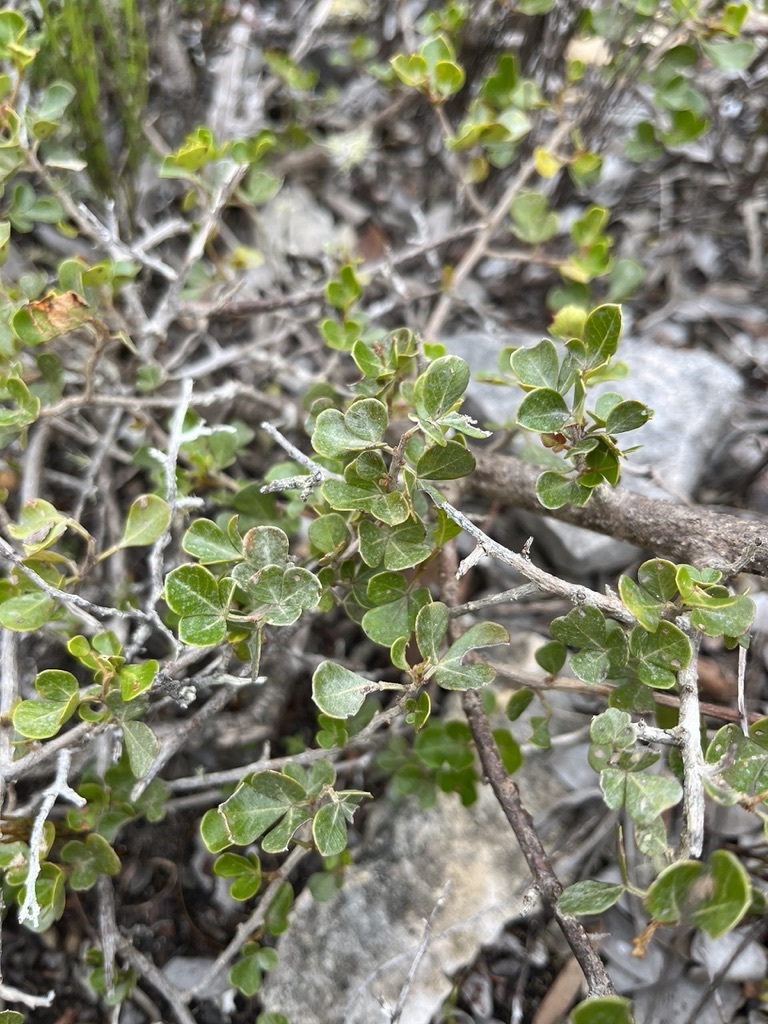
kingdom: Plantae
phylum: Tracheophyta
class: Magnoliopsida
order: Sapindales
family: Anacardiaceae
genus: Searsia
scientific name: Searsia glauca
